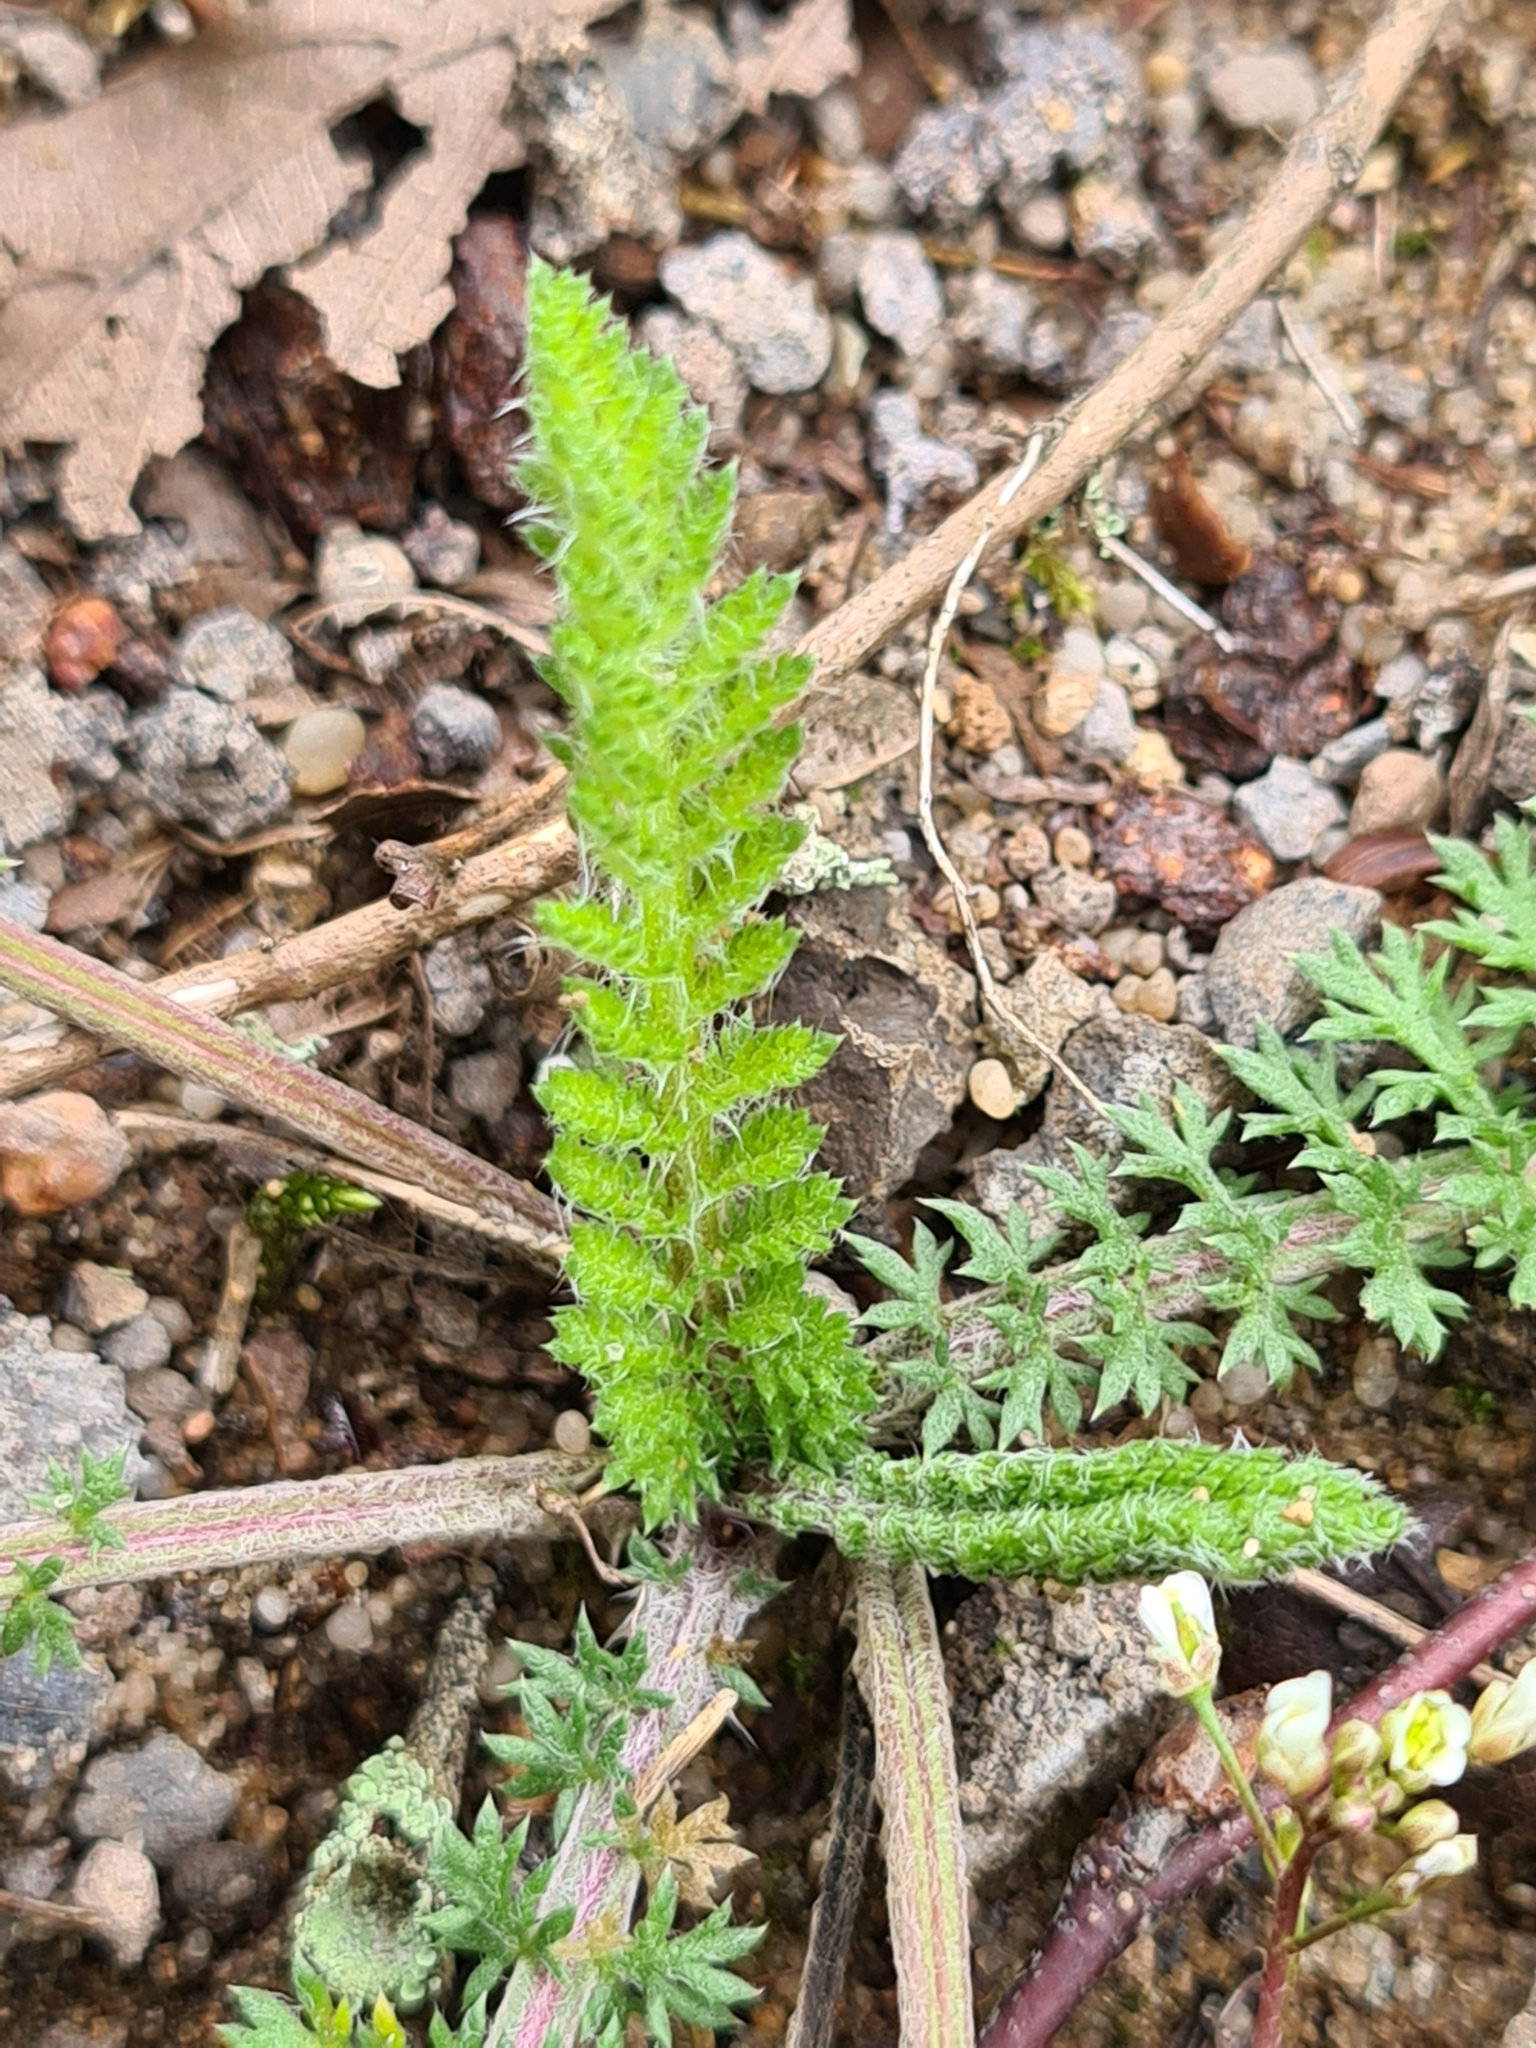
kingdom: Plantae
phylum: Tracheophyta
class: Magnoliopsida
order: Asterales
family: Asteraceae
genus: Achillea
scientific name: Achillea millefolium
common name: Yarrow
